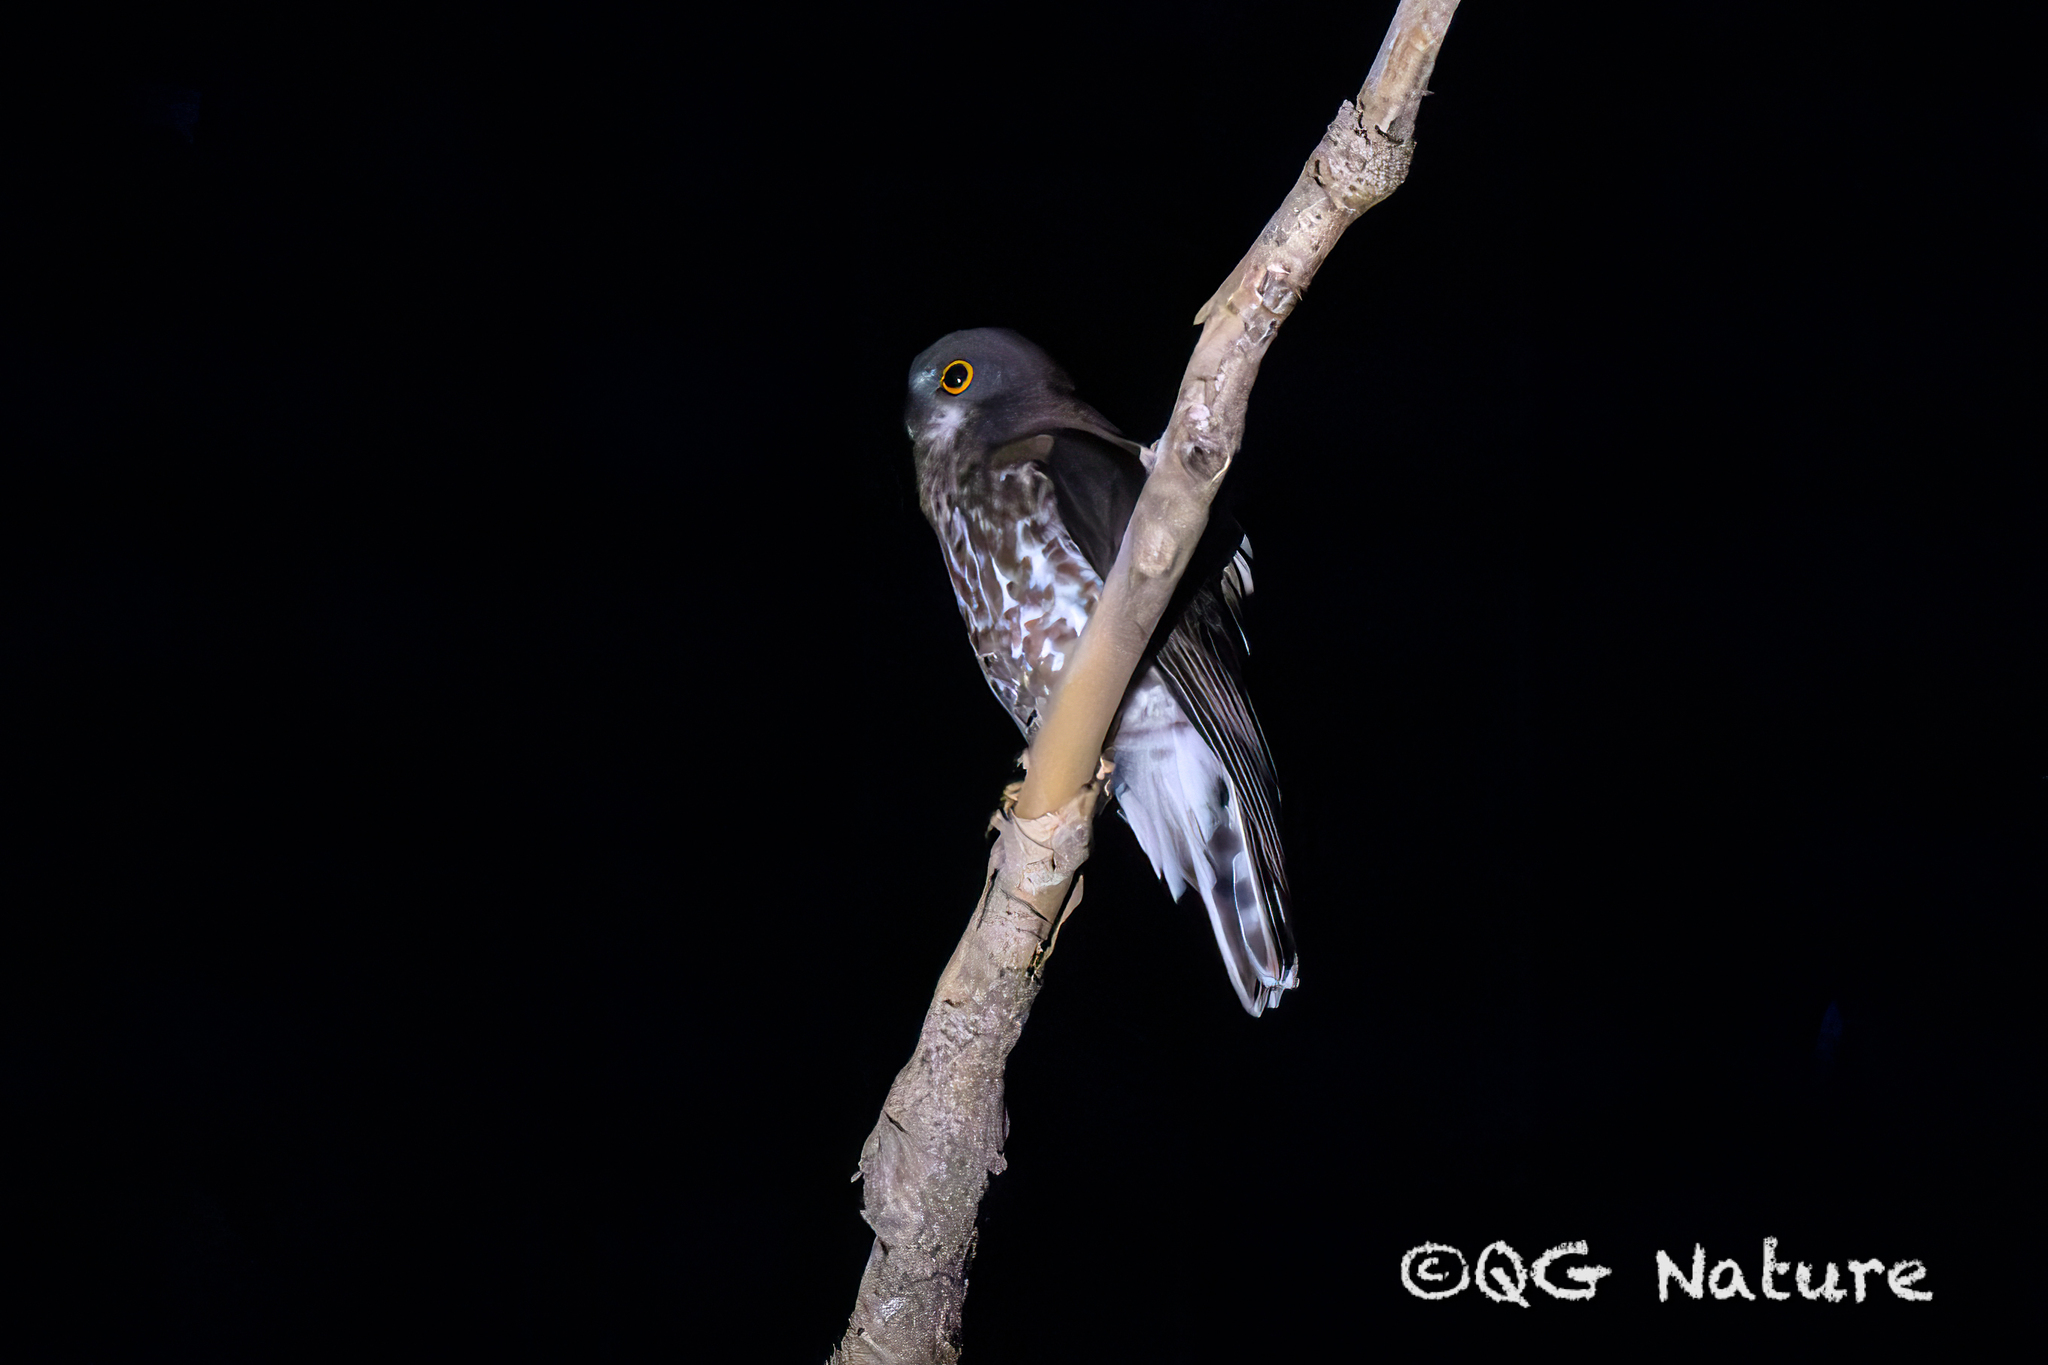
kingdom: Animalia
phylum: Chordata
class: Aves
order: Strigiformes
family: Strigidae
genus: Ninox
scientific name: Ninox scutulata
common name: Brown hawk-owl
